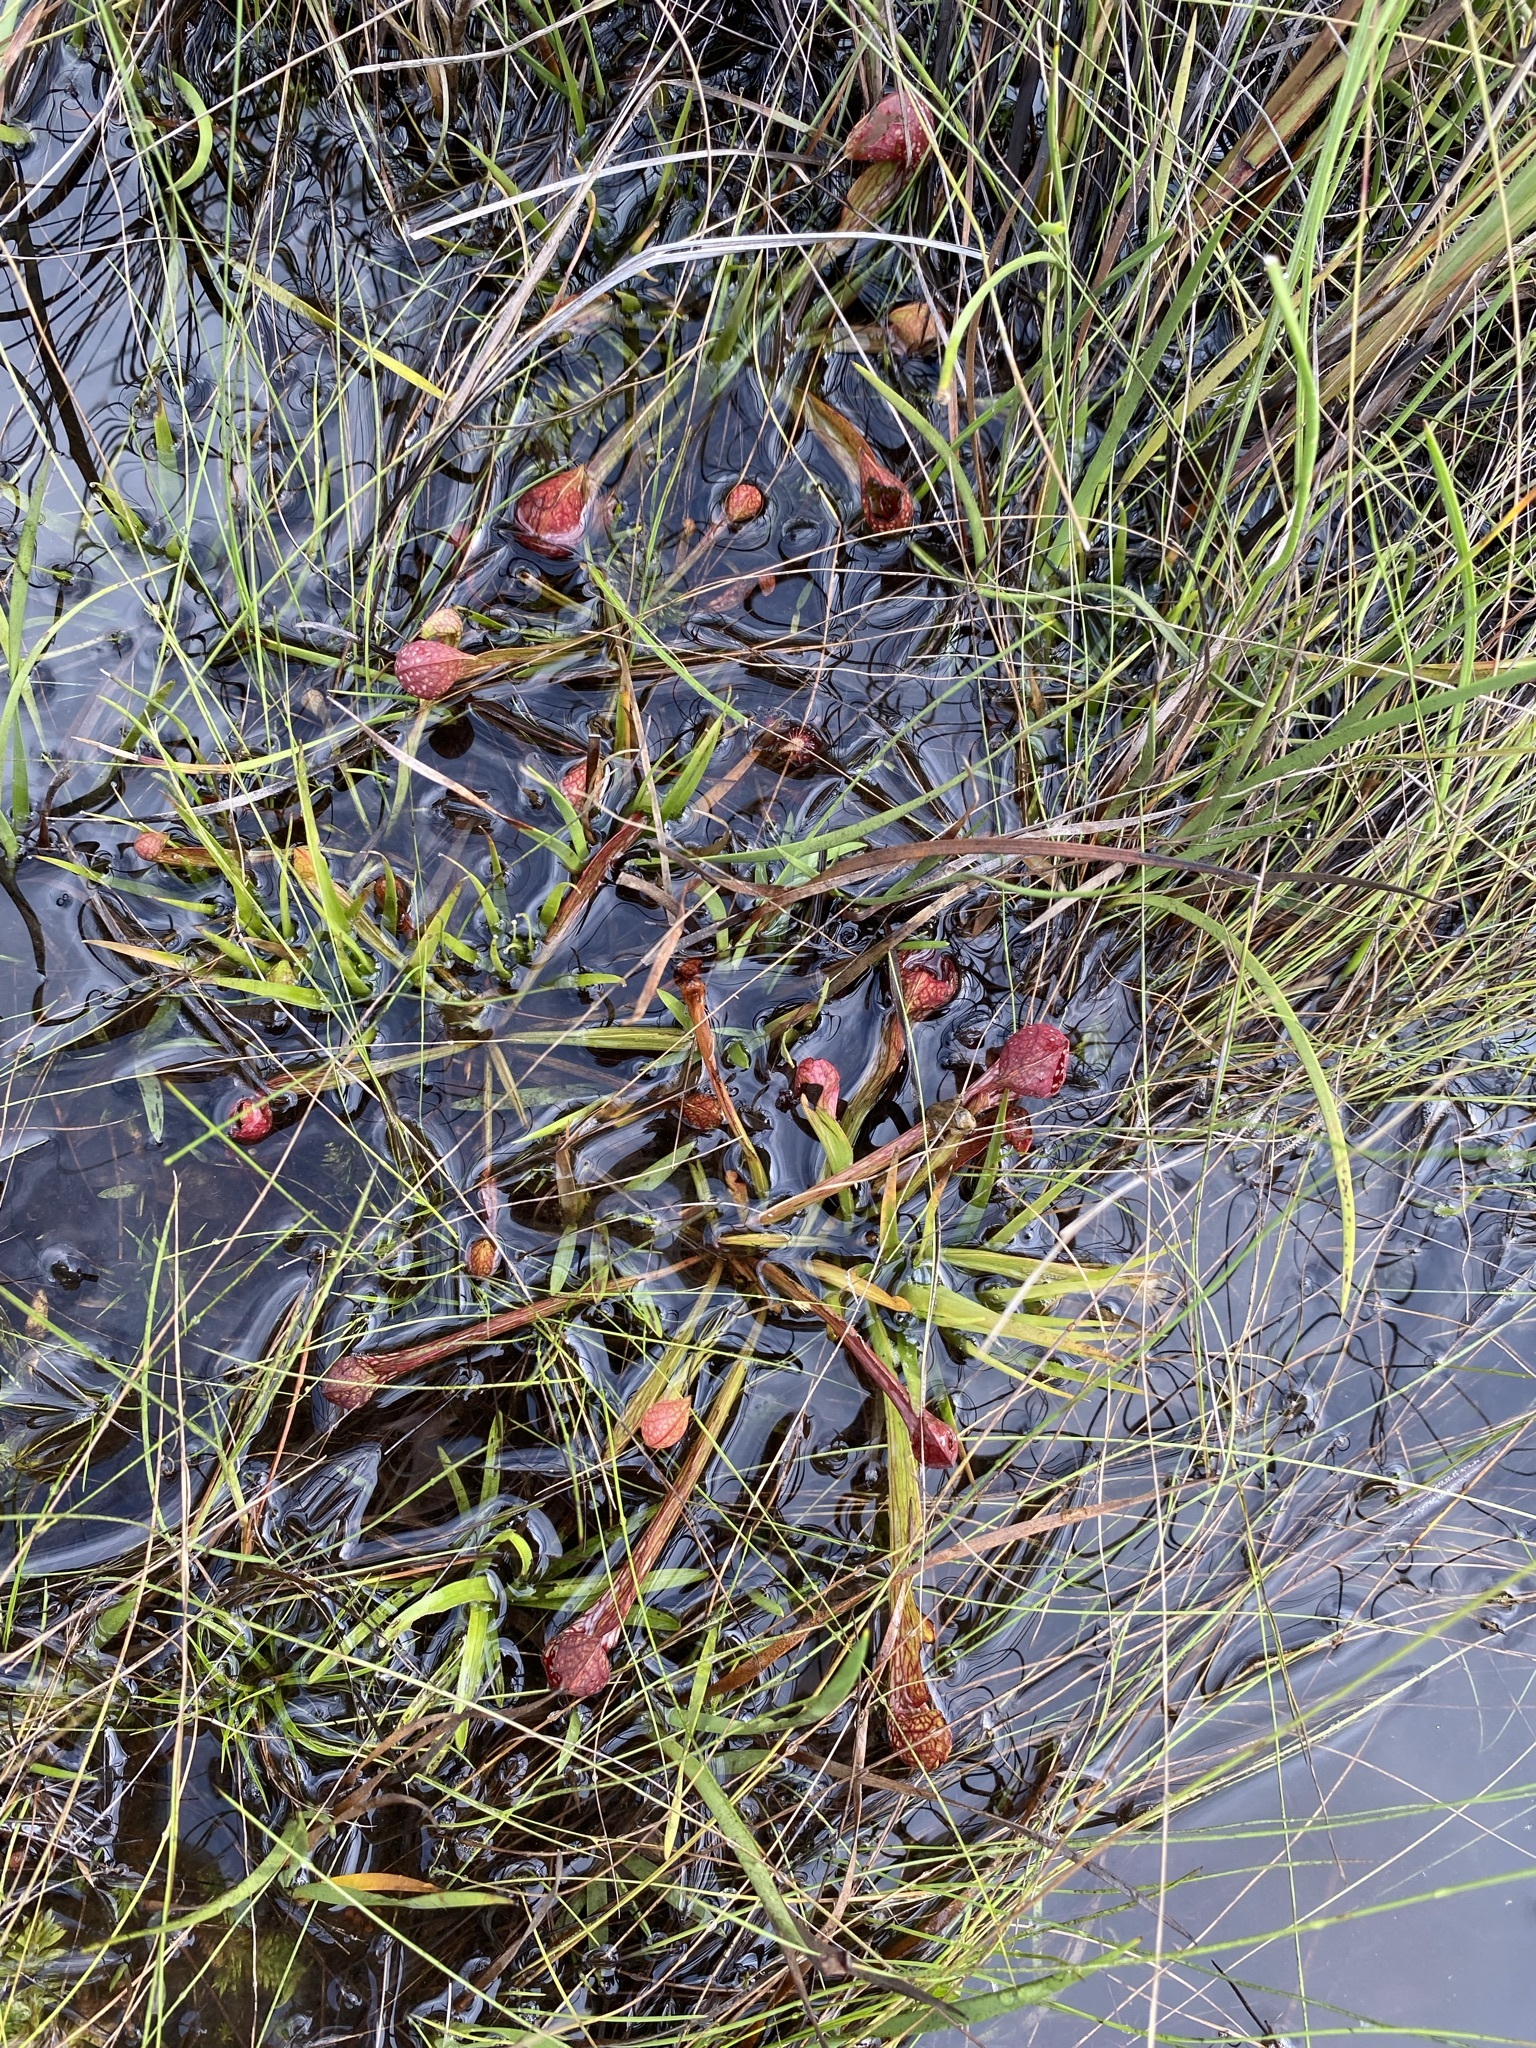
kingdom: Plantae
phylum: Tracheophyta
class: Magnoliopsida
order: Ericales
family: Sarraceniaceae
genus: Sarracenia
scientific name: Sarracenia psittacina
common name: Parrot pitcherplant
